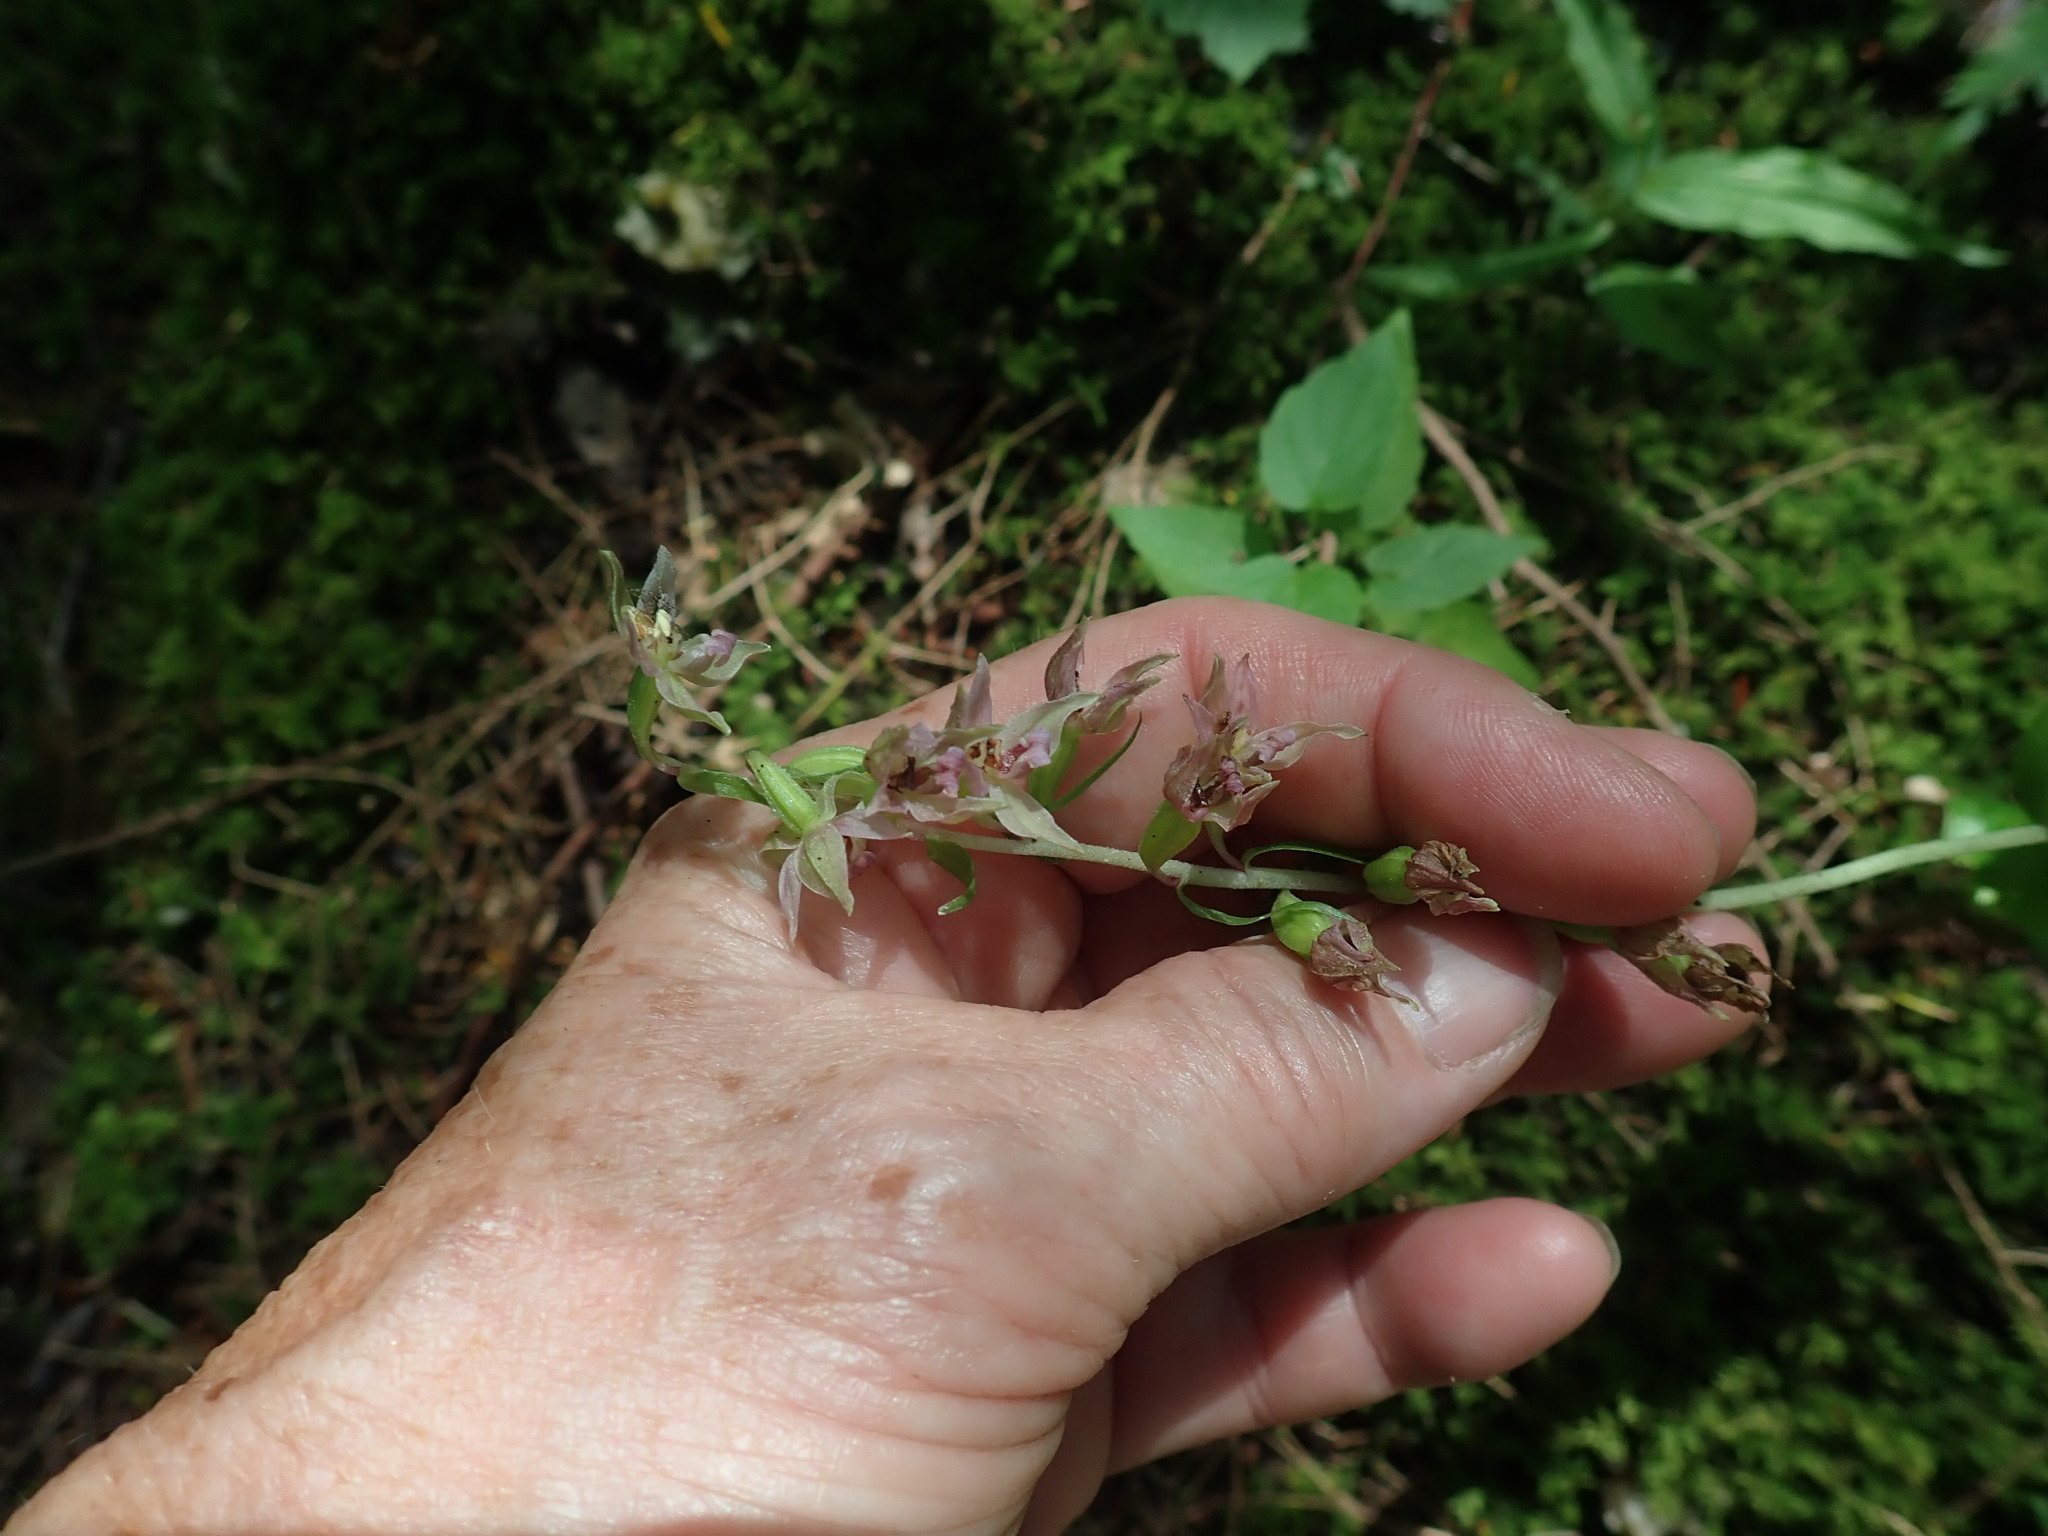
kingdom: Plantae
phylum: Tracheophyta
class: Liliopsida
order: Asparagales
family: Orchidaceae
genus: Epipactis
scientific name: Epipactis helleborine
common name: Broad-leaved helleborine
